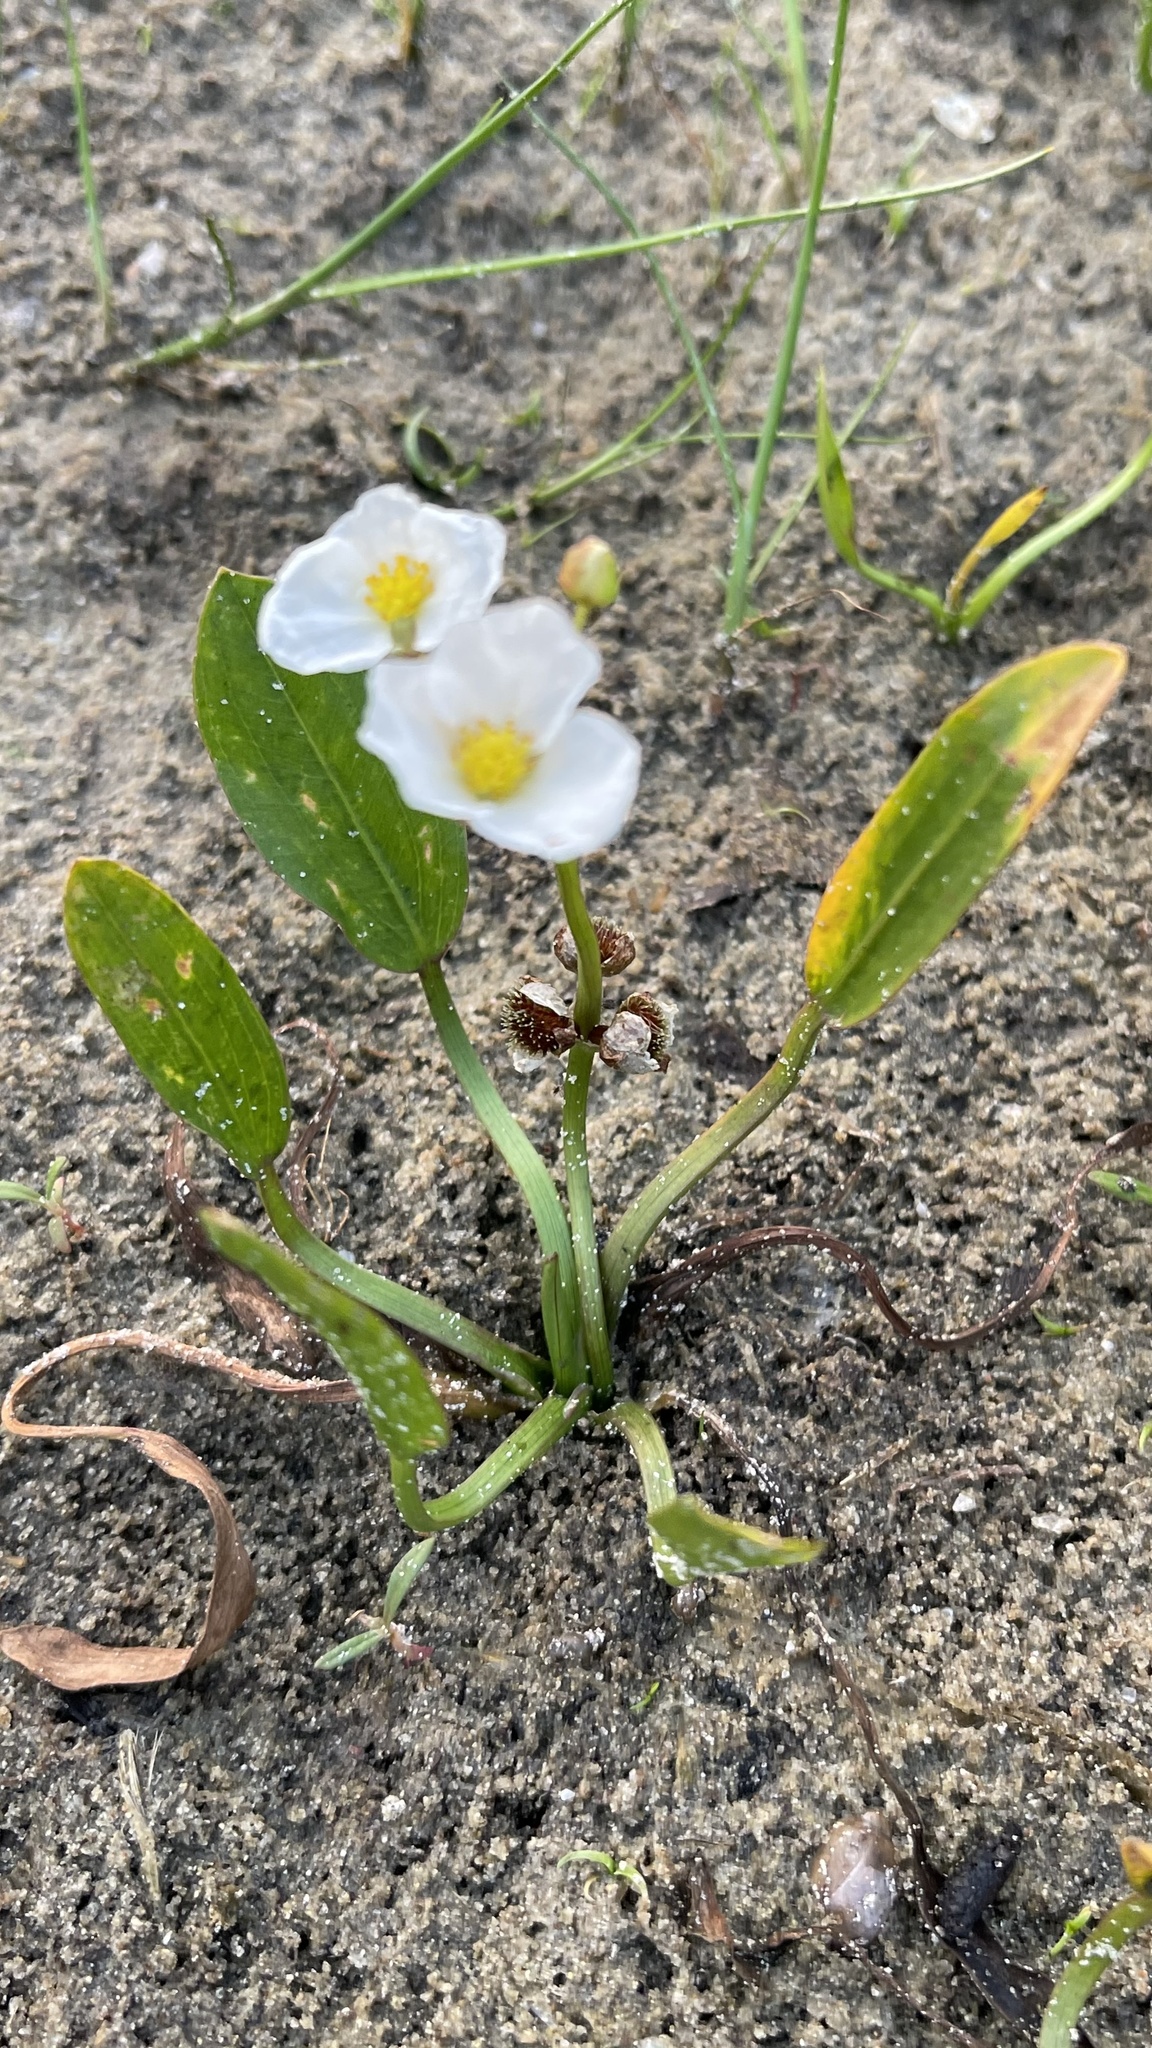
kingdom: Plantae
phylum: Tracheophyta
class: Liliopsida
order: Alismatales
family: Alismataceae
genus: Sagittaria
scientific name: Sagittaria rigida
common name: Canadian arrowhead
